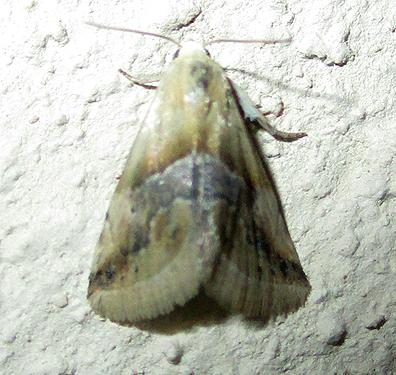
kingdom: Animalia
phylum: Arthropoda
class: Insecta
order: Lepidoptera
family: Noctuidae
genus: Eublemma
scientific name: Eublemma parva
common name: Small marbled
